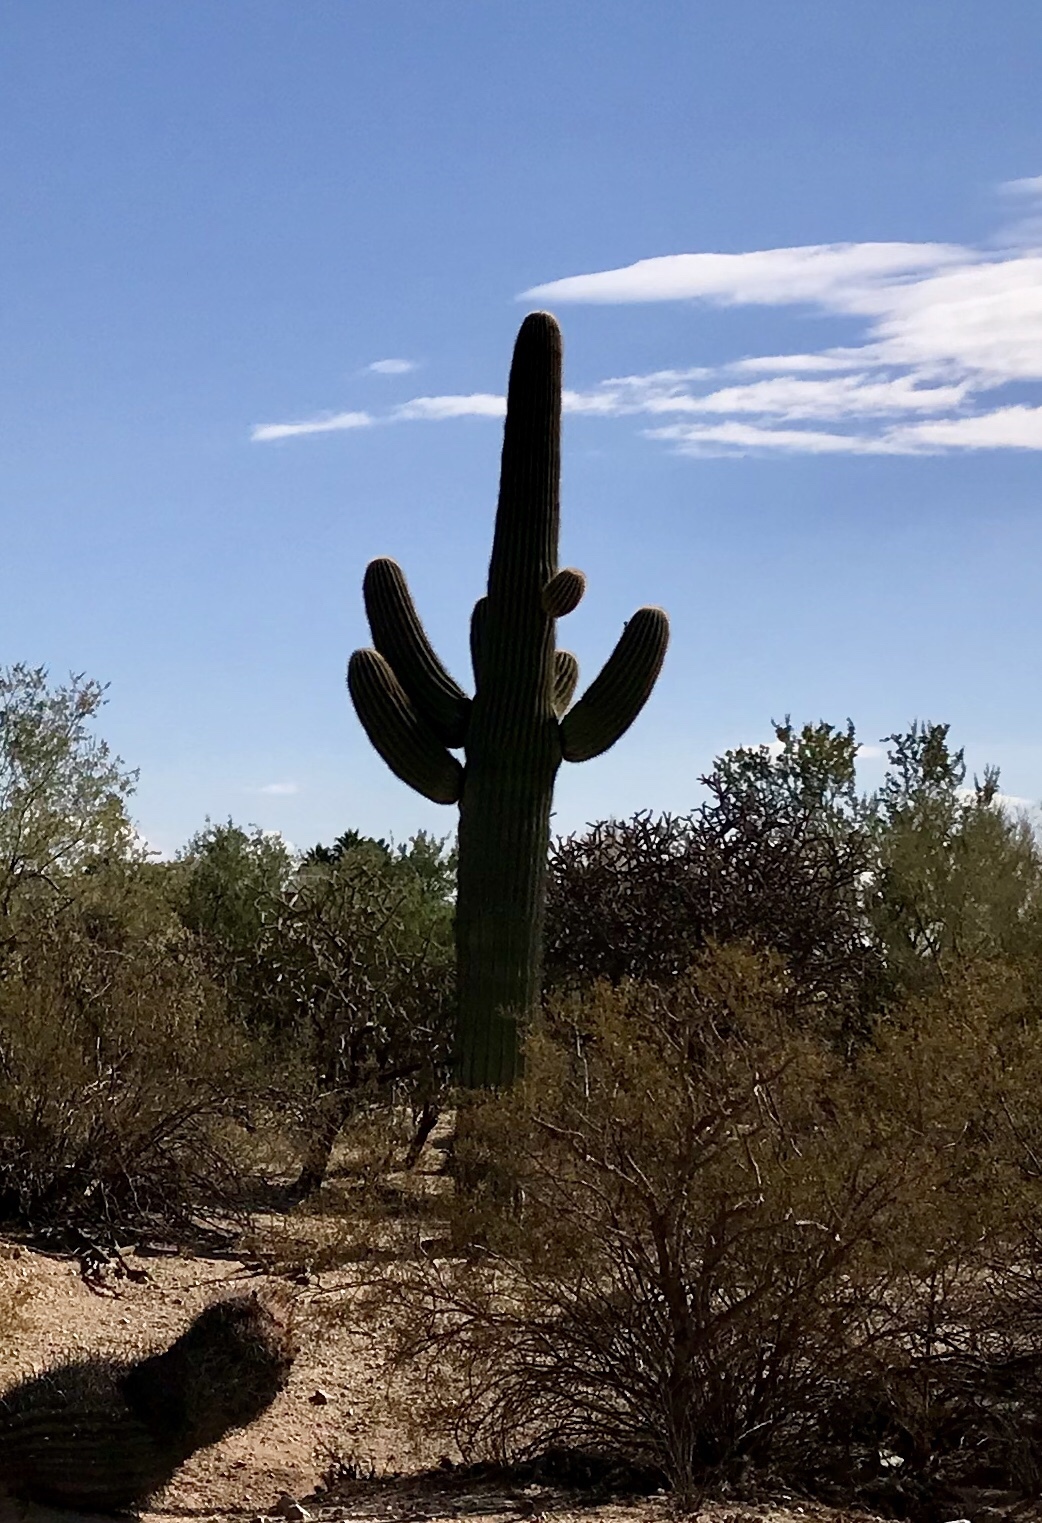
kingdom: Plantae
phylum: Tracheophyta
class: Magnoliopsida
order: Caryophyllales
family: Cactaceae
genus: Carnegiea
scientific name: Carnegiea gigantea
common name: Saguaro
